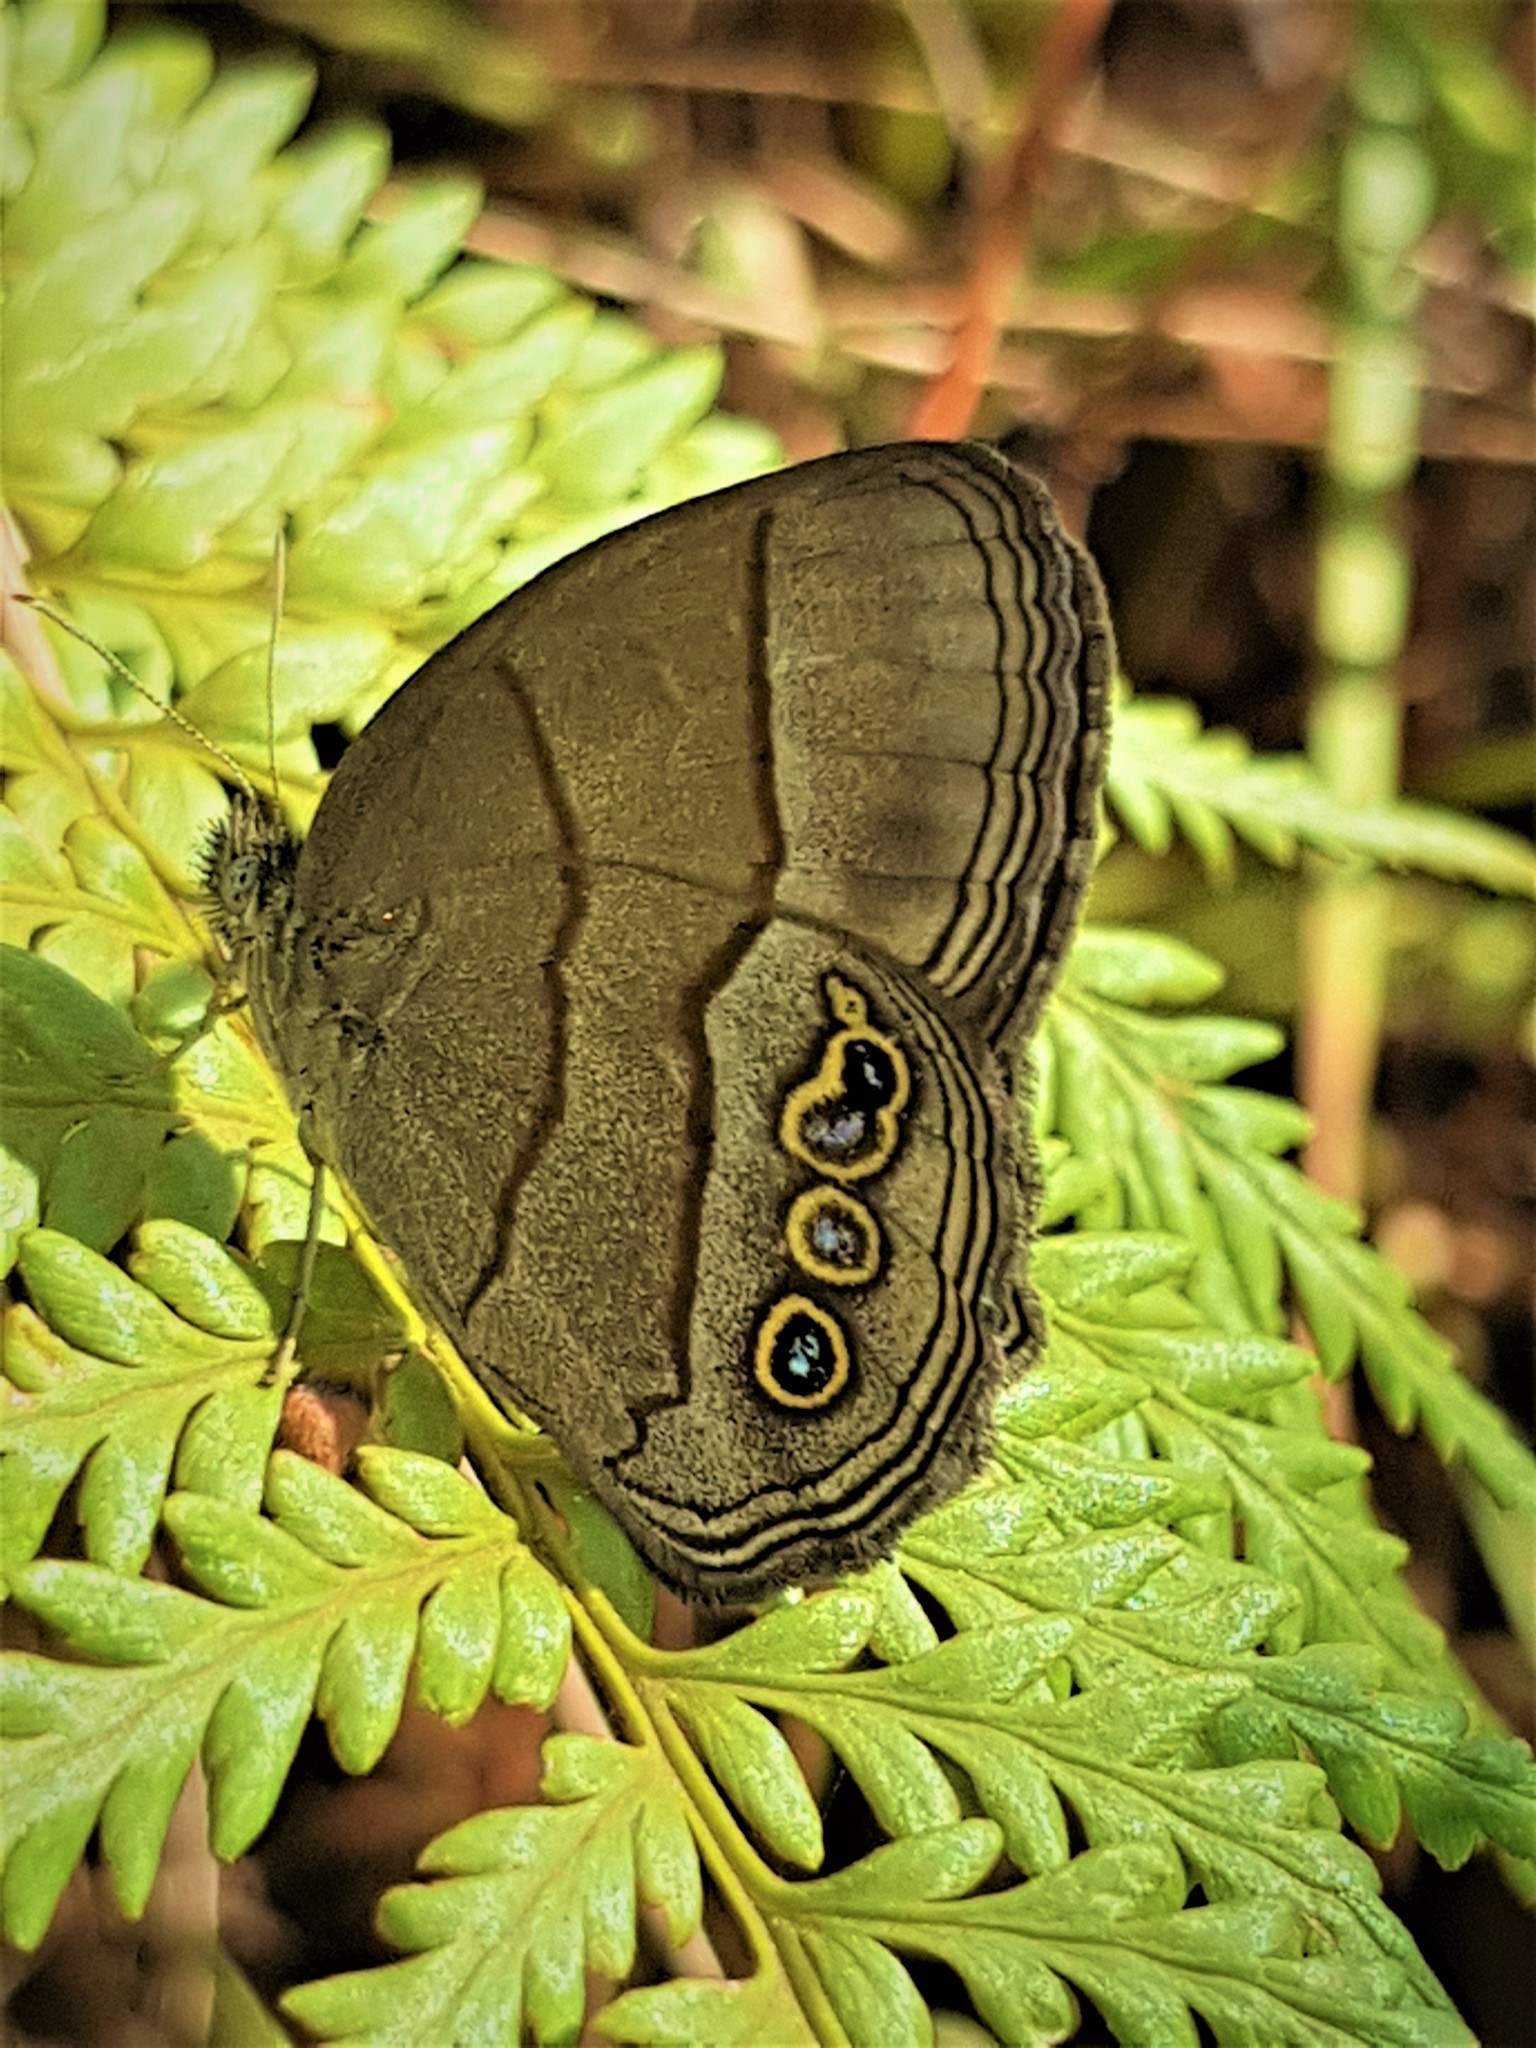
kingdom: Animalia
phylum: Arthropoda
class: Insecta
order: Lepidoptera
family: Nymphalidae
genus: Yphthimoides
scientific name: Yphthimoides yphthima
